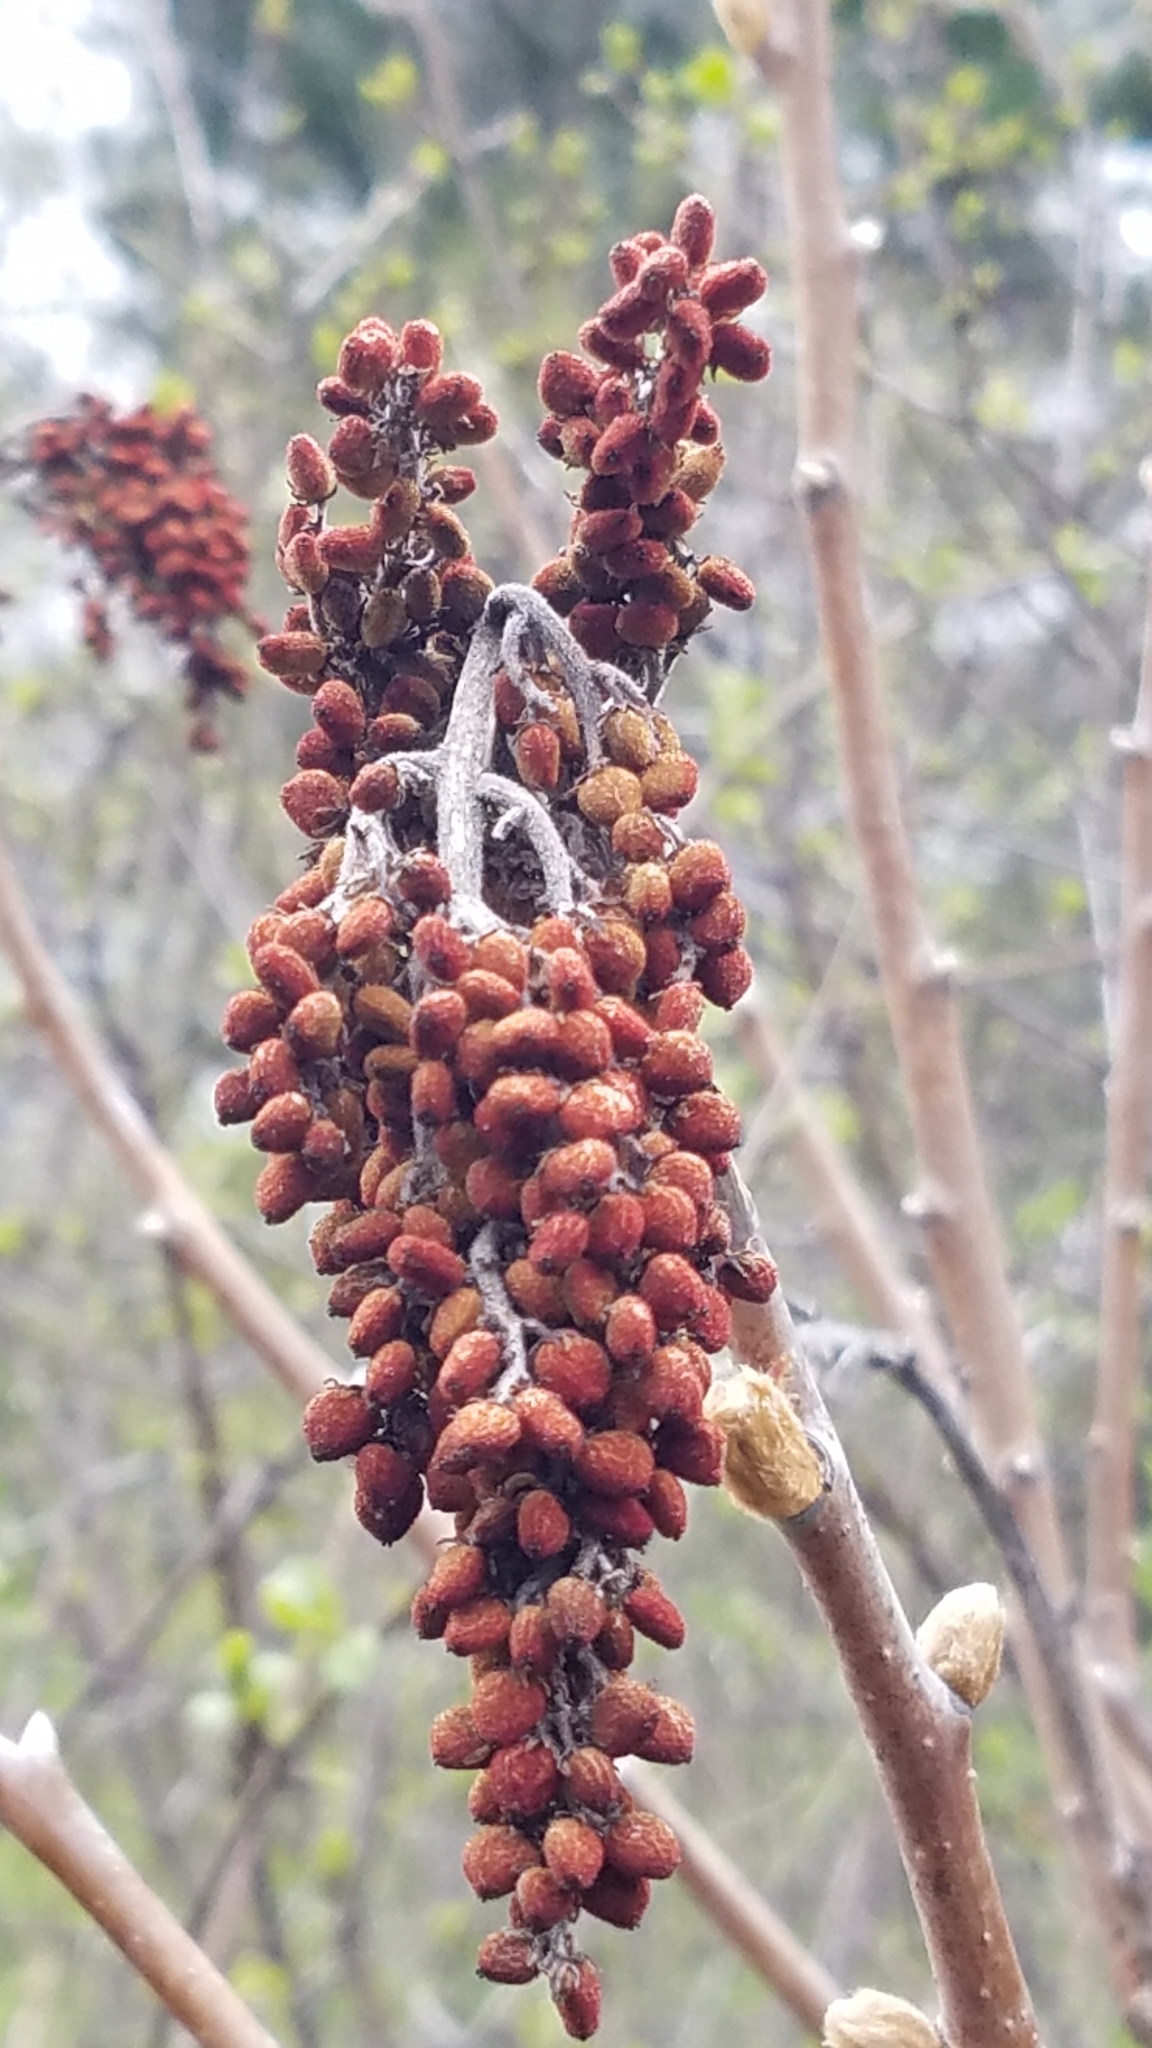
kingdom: Plantae
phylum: Tracheophyta
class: Magnoliopsida
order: Sapindales
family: Anacardiaceae
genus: Rhus
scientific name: Rhus glabra
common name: Scarlet sumac
